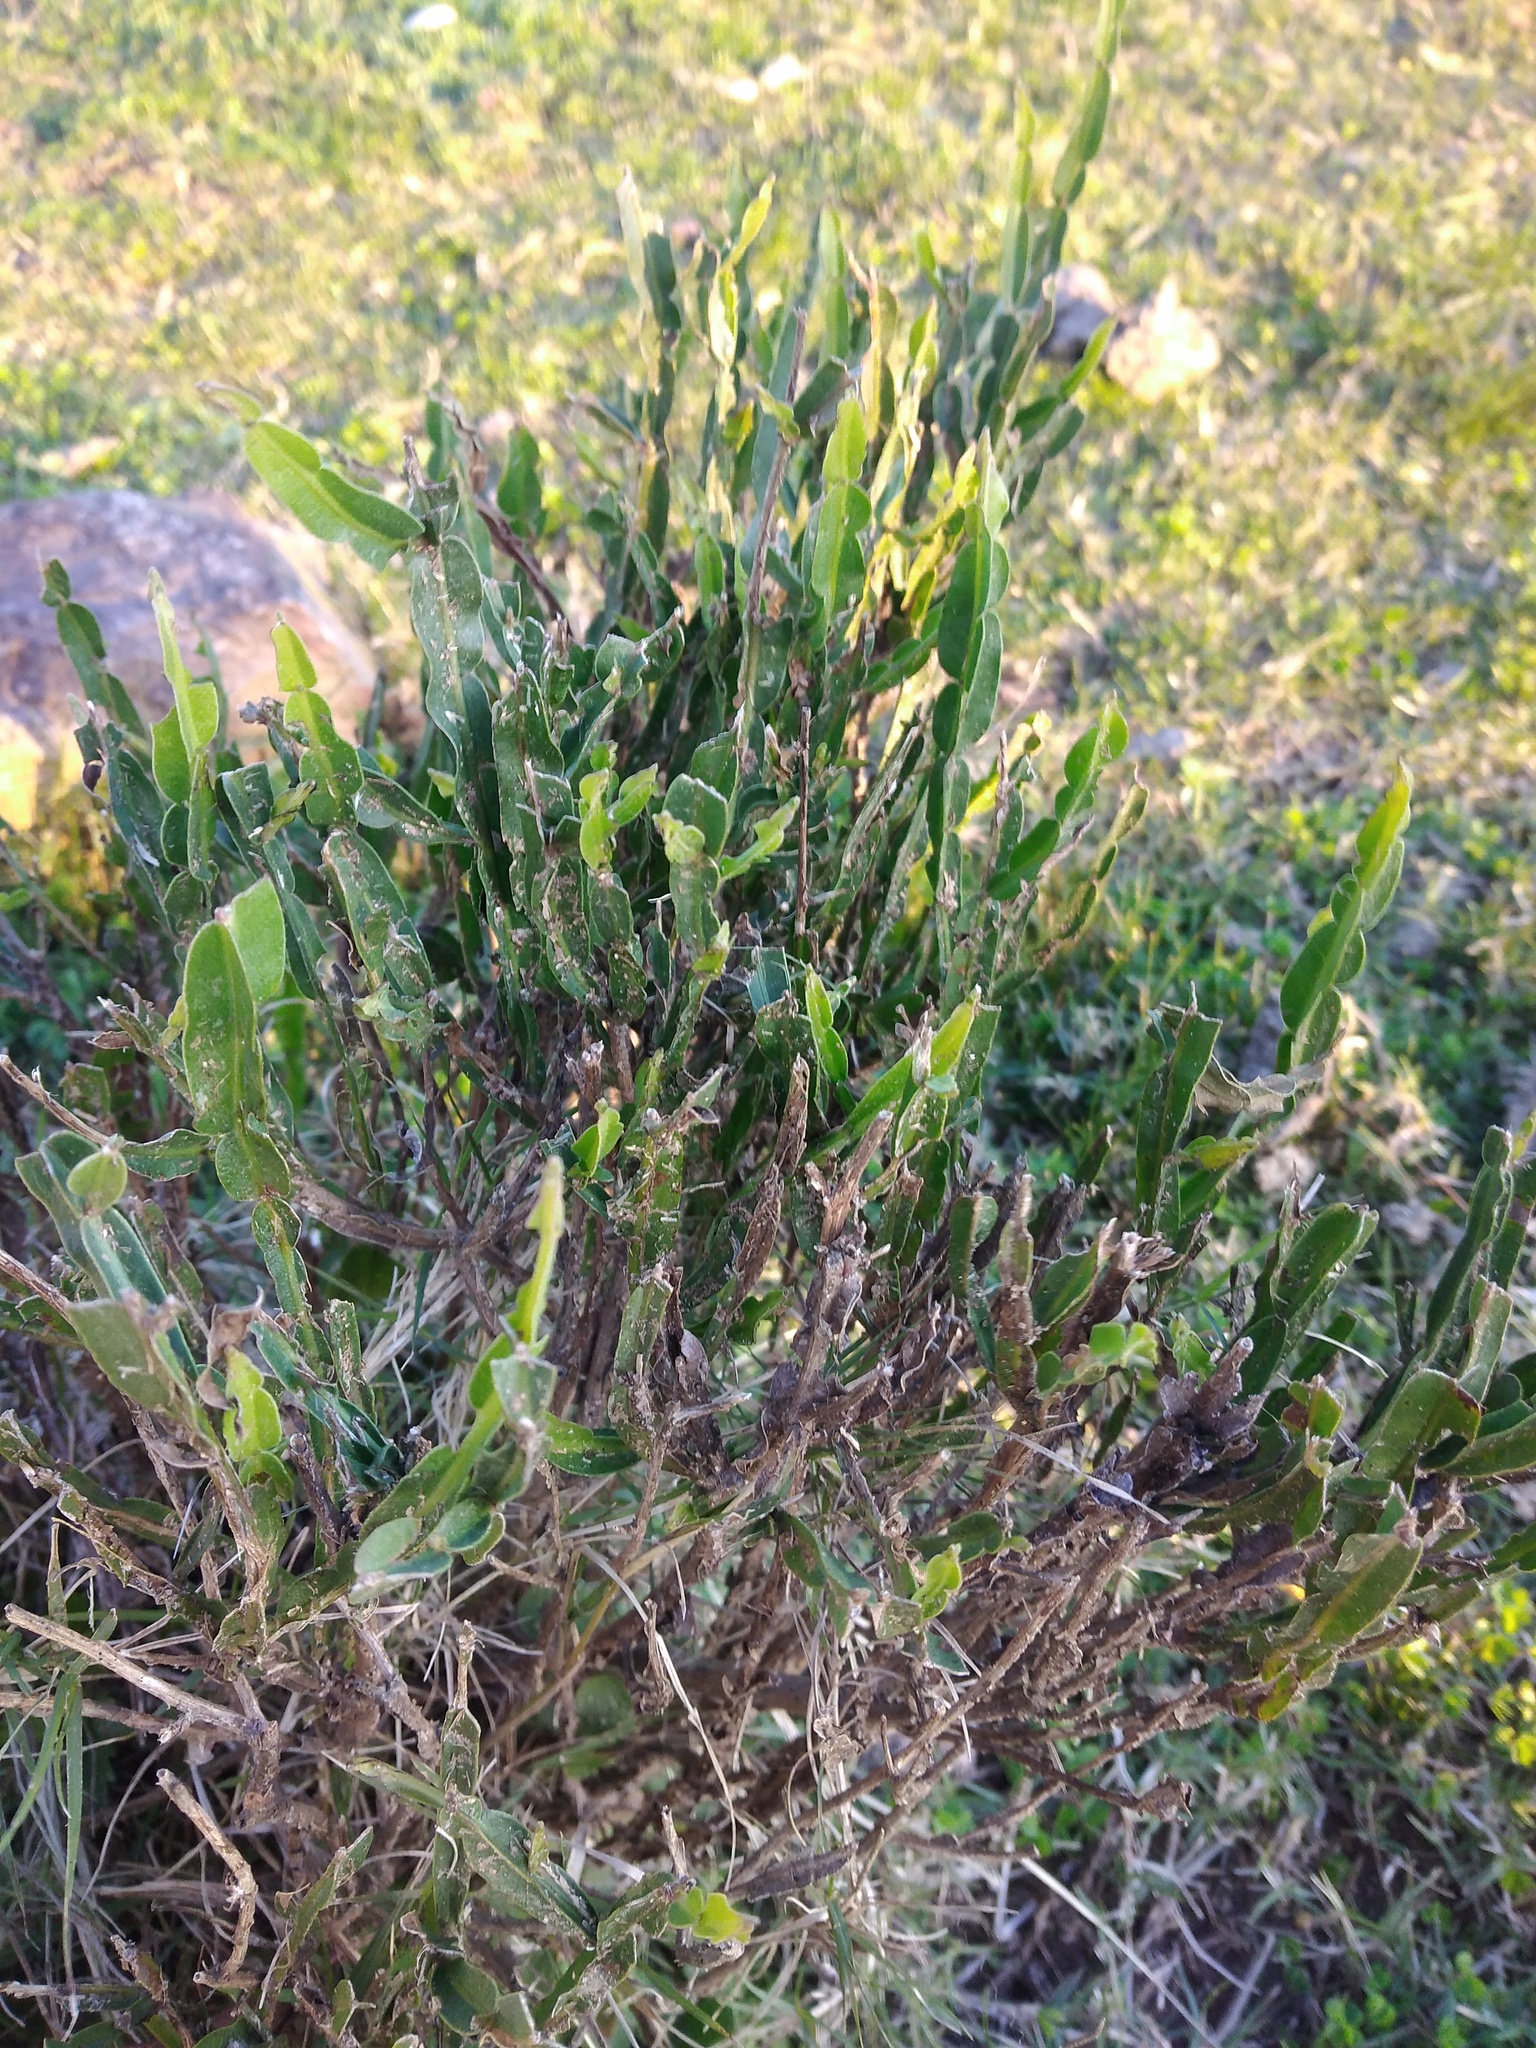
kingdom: Plantae
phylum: Tracheophyta
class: Magnoliopsida
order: Asterales
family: Asteraceae
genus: Baccharis
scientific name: Baccharis trimera
